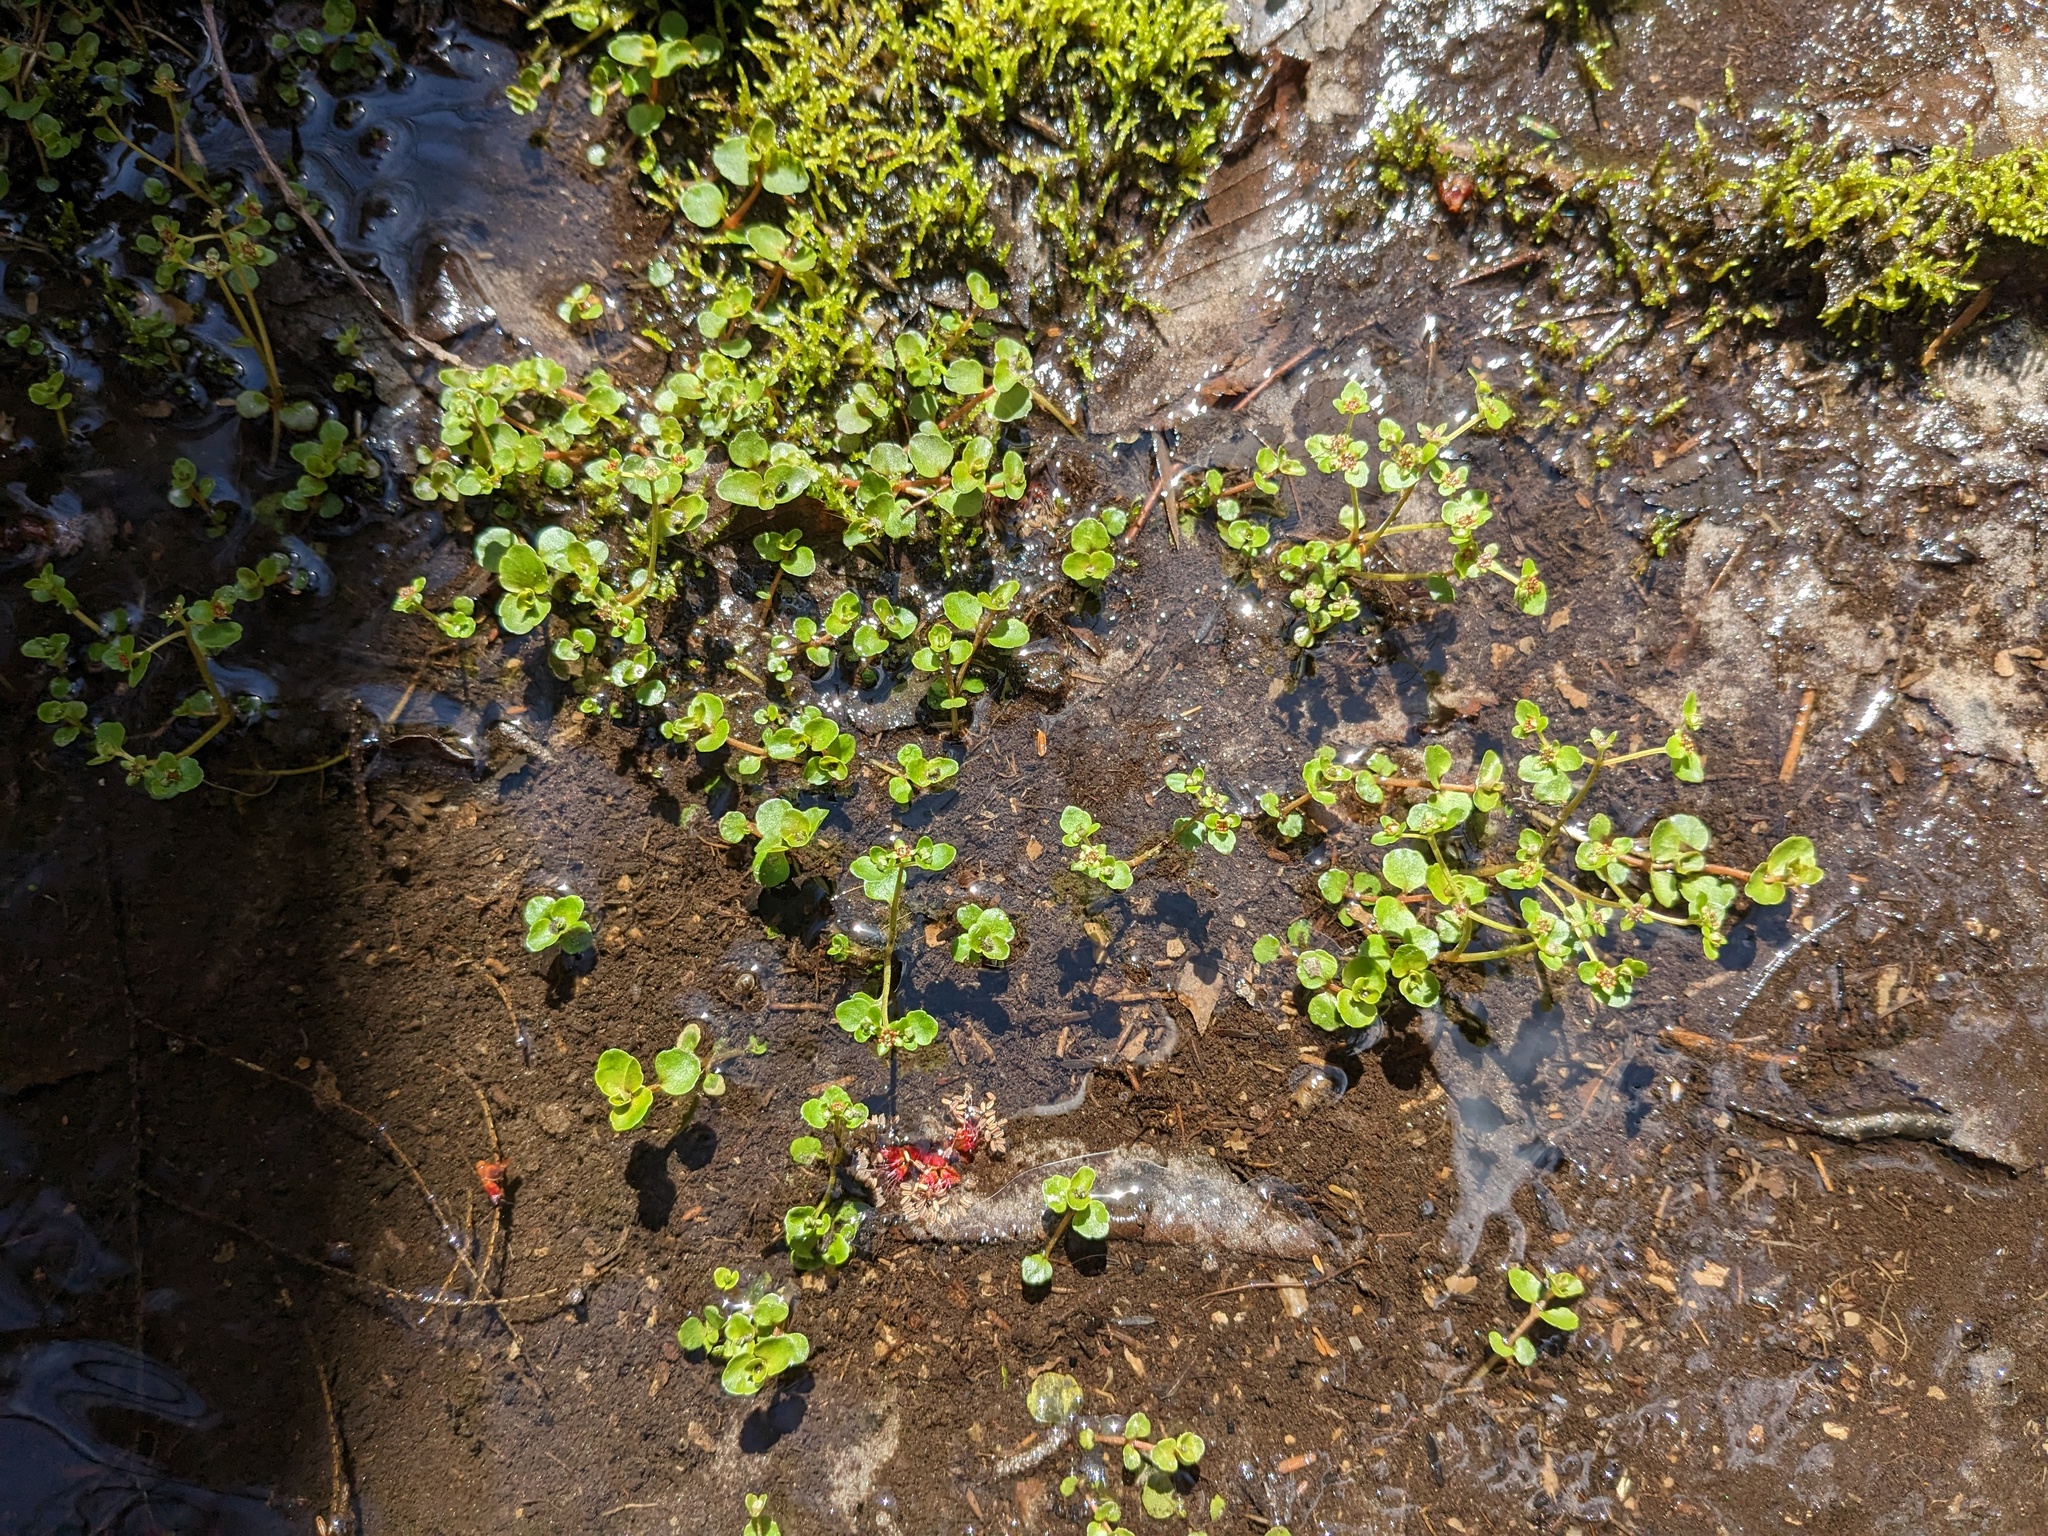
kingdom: Plantae
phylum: Tracheophyta
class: Magnoliopsida
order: Saxifragales
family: Saxifragaceae
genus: Chrysosplenium
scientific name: Chrysosplenium americanum
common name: American golden-saxifrage
